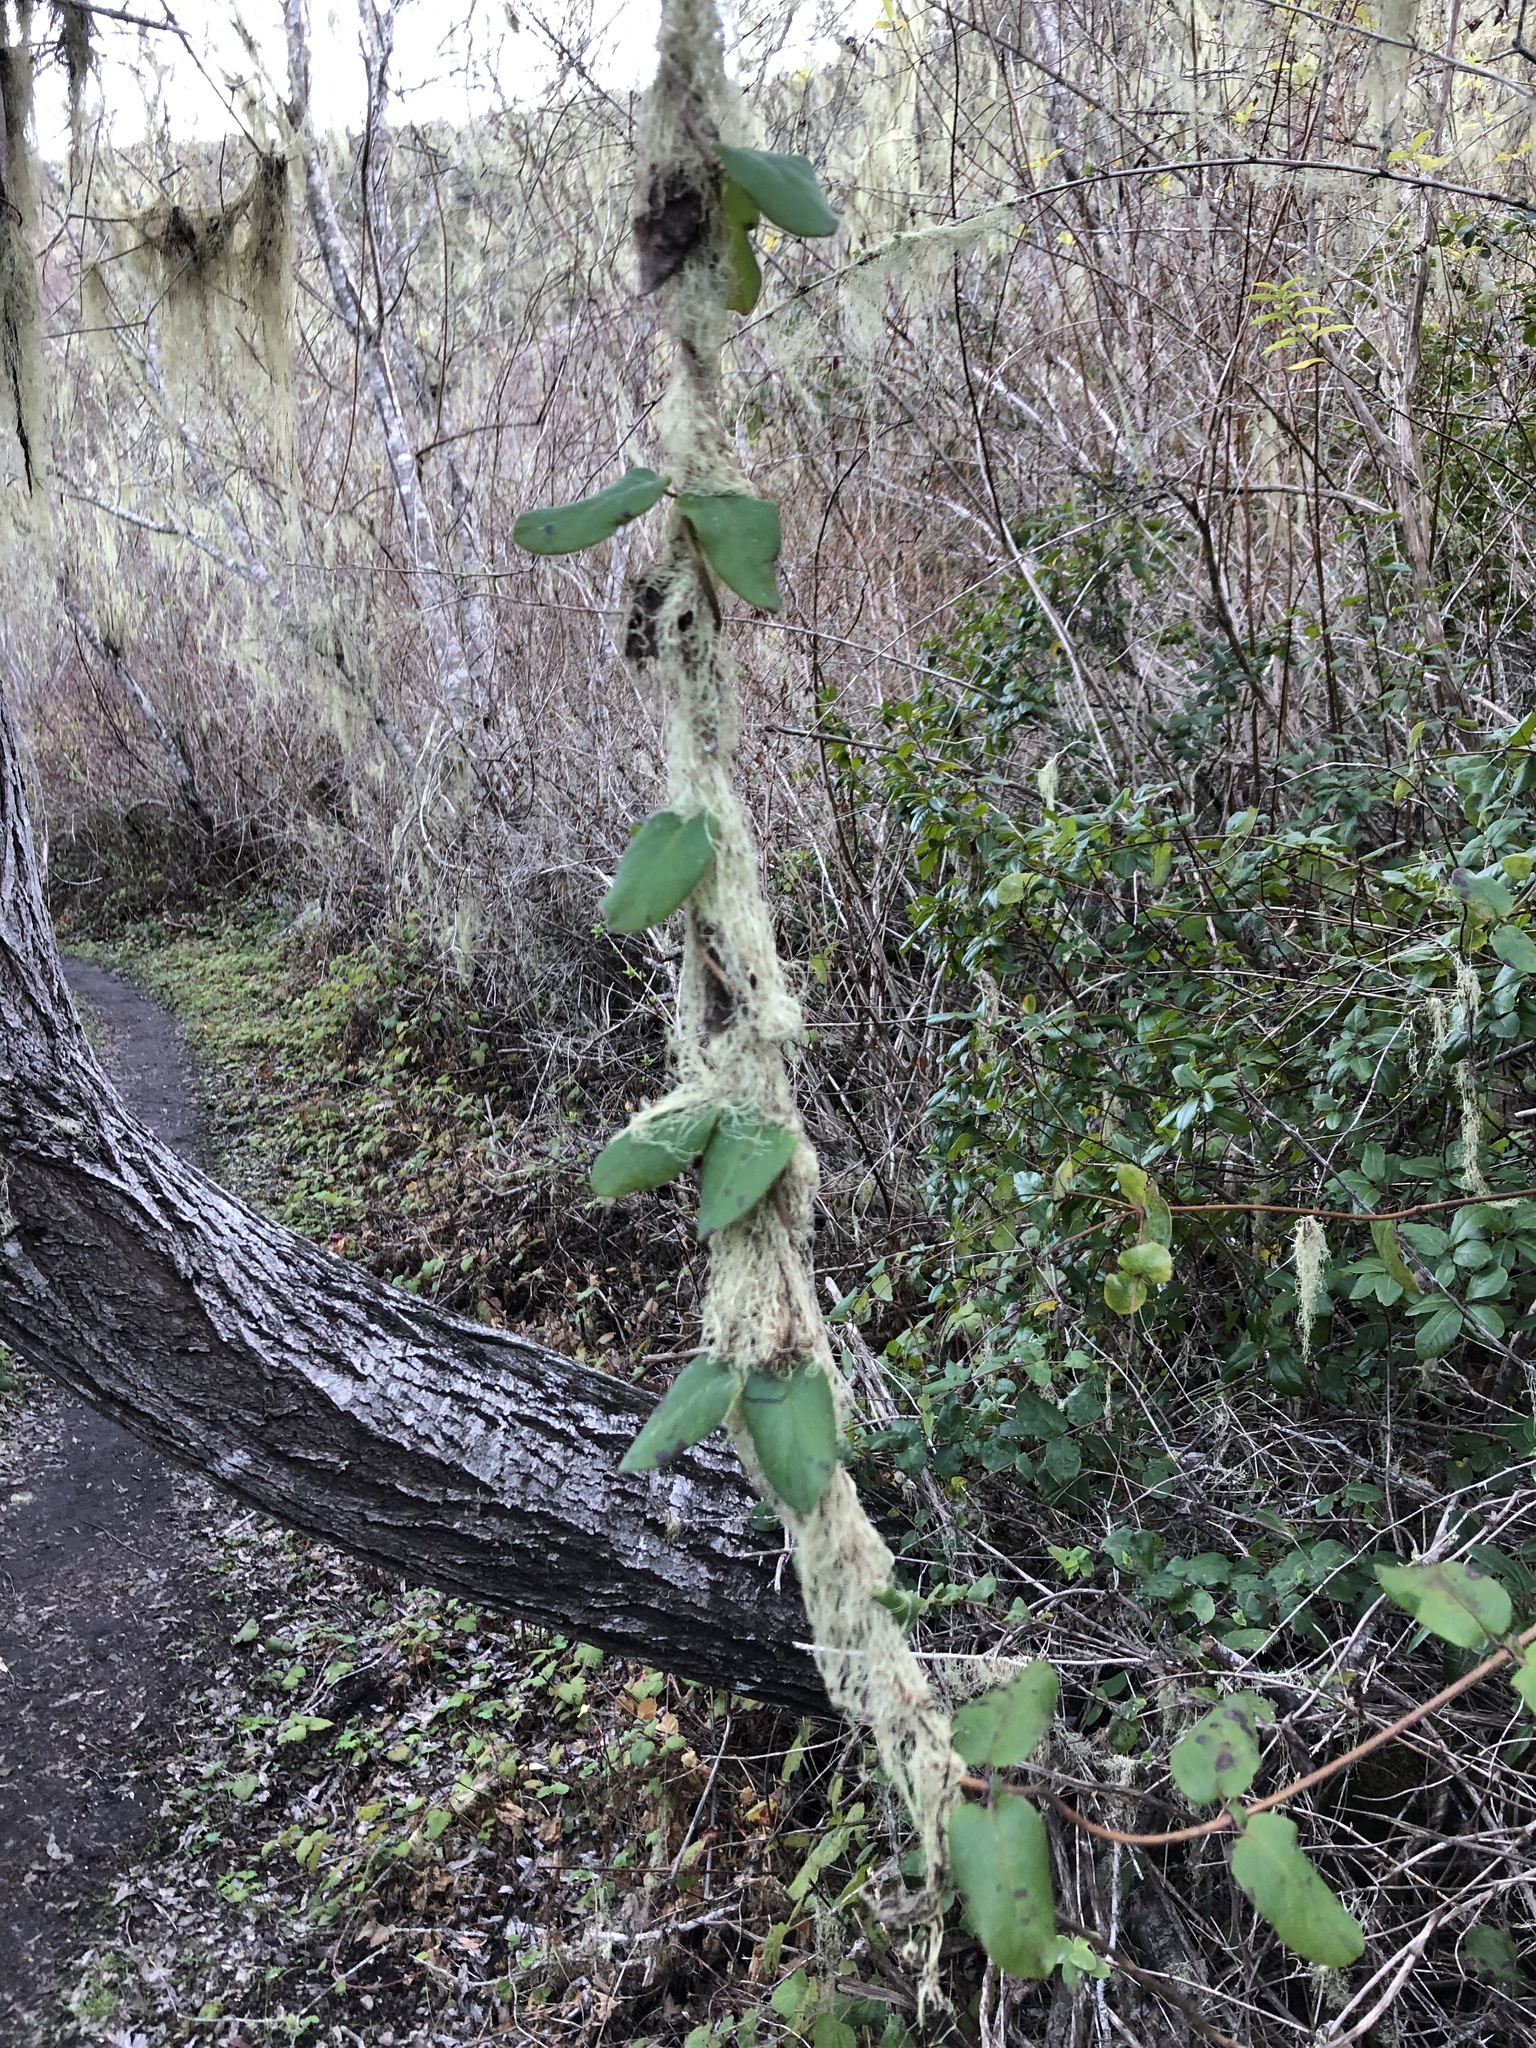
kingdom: Plantae
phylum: Tracheophyta
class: Magnoliopsida
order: Dipsacales
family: Caprifoliaceae
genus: Lonicera
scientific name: Lonicera hispidula
